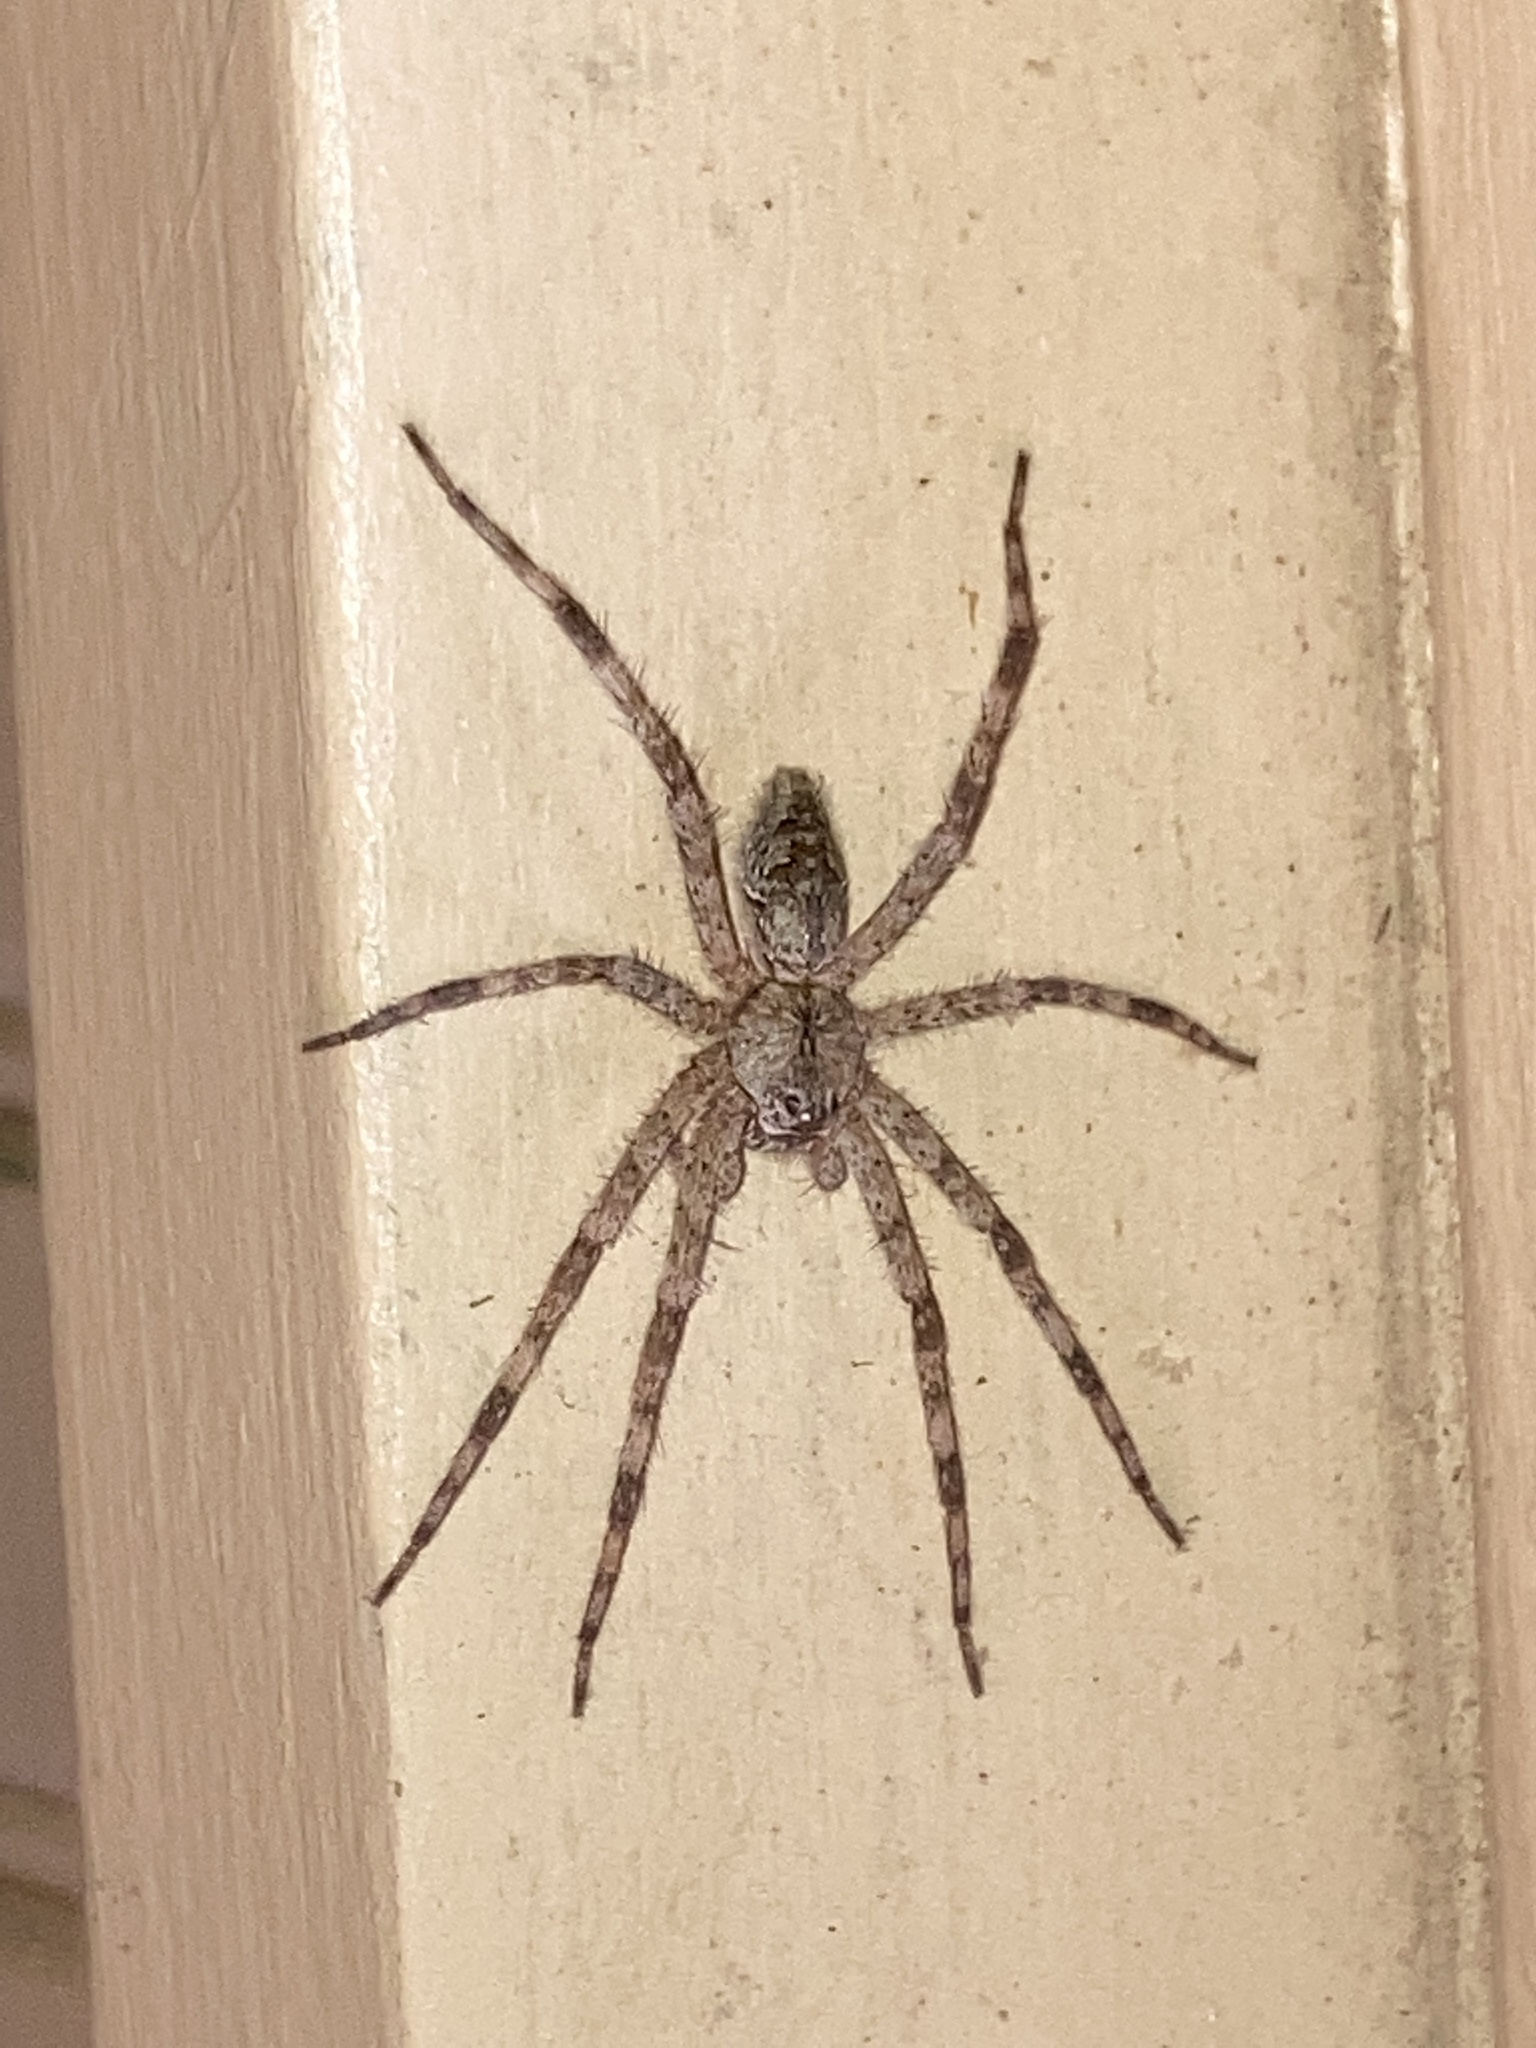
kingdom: Animalia
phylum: Arthropoda
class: Arachnida
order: Araneae
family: Pisauridae
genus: Dolomedes
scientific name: Dolomedes albineus
